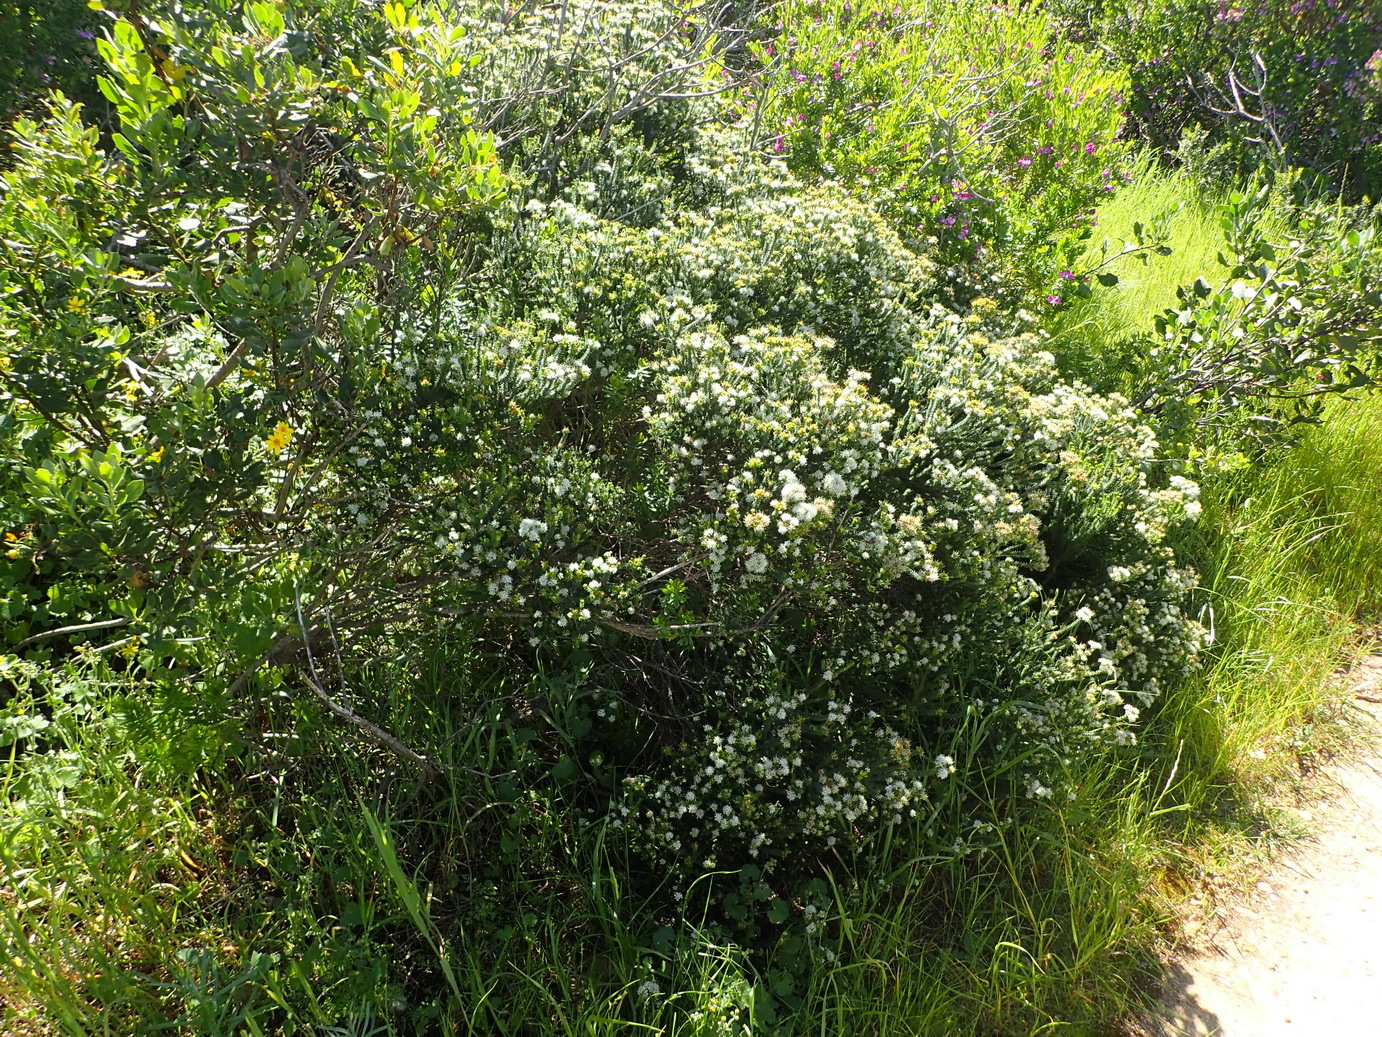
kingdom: Plantae
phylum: Tracheophyta
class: Magnoliopsida
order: Sapindales
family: Rutaceae
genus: Agathosma
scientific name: Agathosma apiculata
